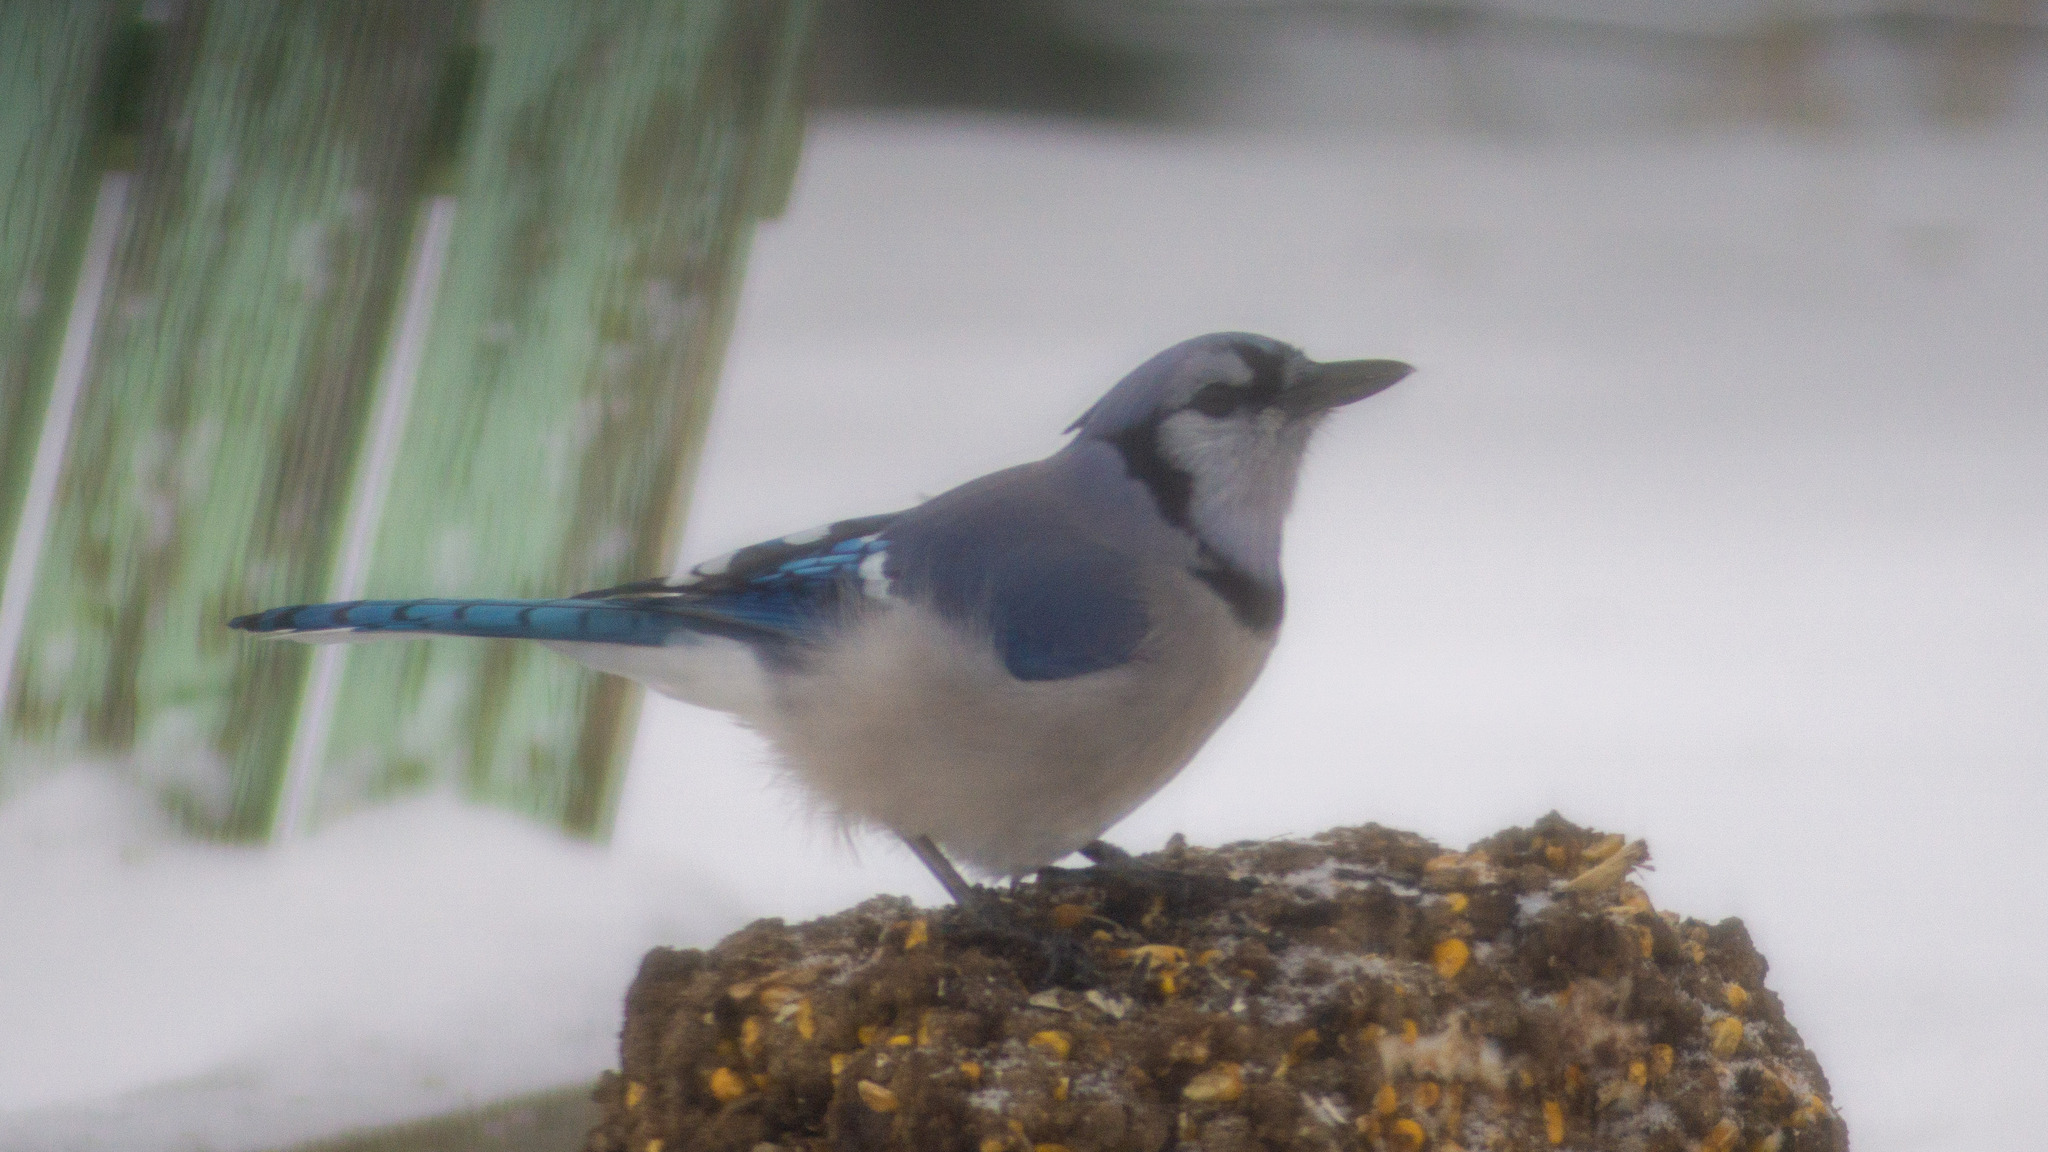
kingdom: Animalia
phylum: Chordata
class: Aves
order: Passeriformes
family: Corvidae
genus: Cyanocitta
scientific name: Cyanocitta cristata
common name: Blue jay
